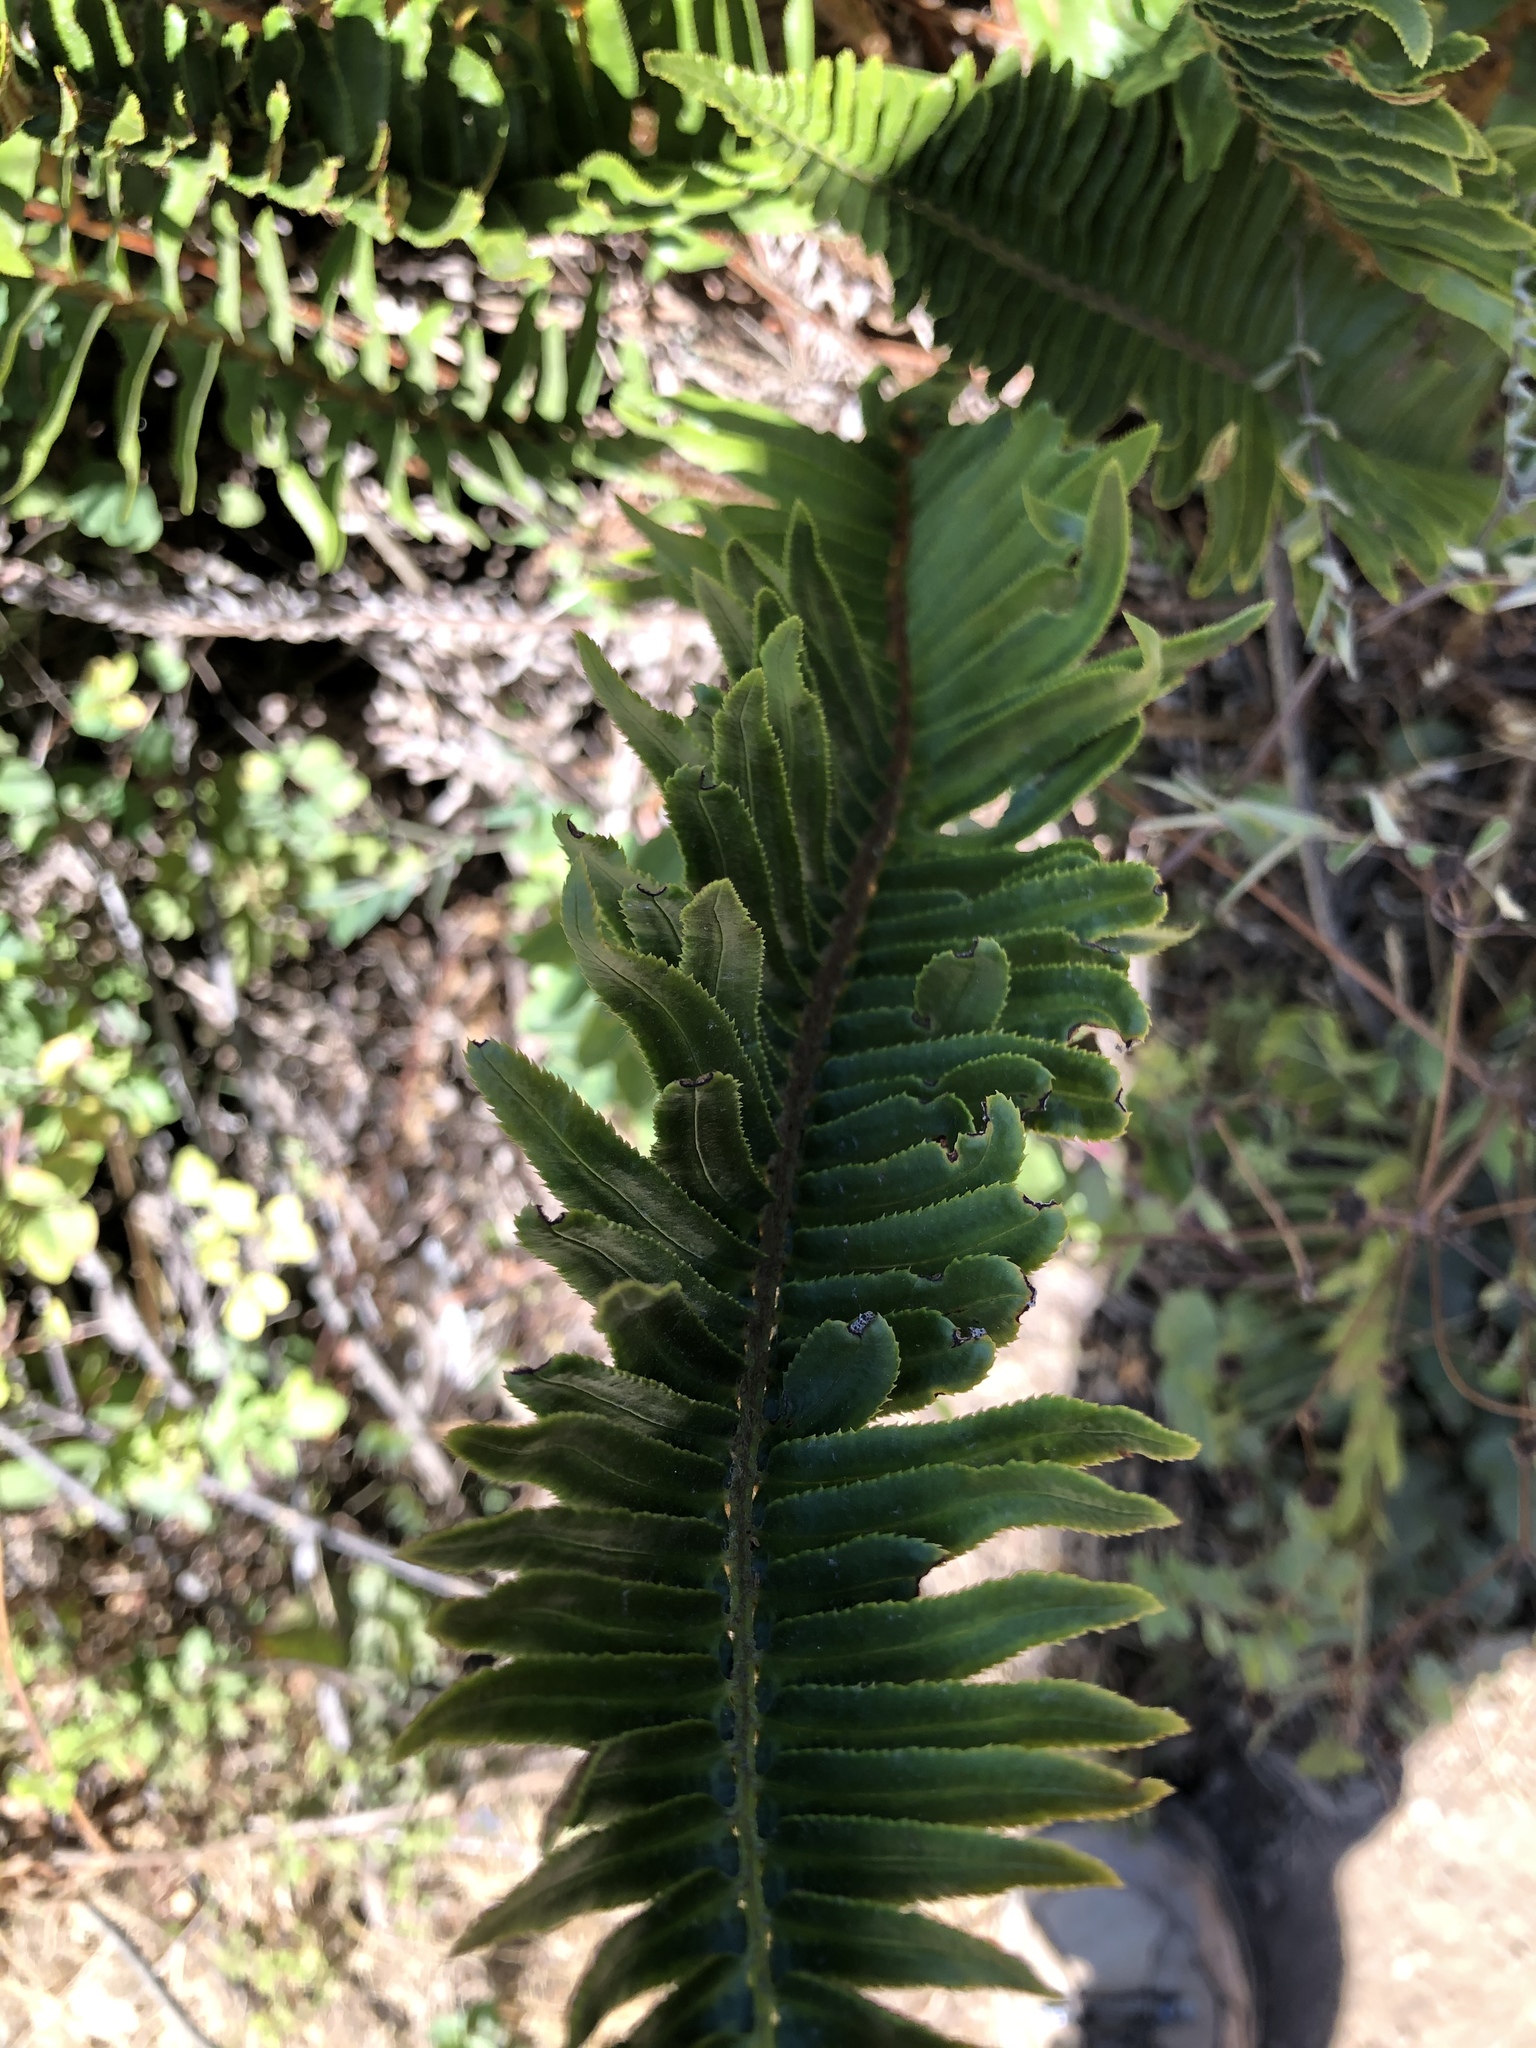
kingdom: Plantae
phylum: Tracheophyta
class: Polypodiopsida
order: Polypodiales
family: Dryopteridaceae
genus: Polystichum
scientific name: Polystichum munitum
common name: Western sword-fern
